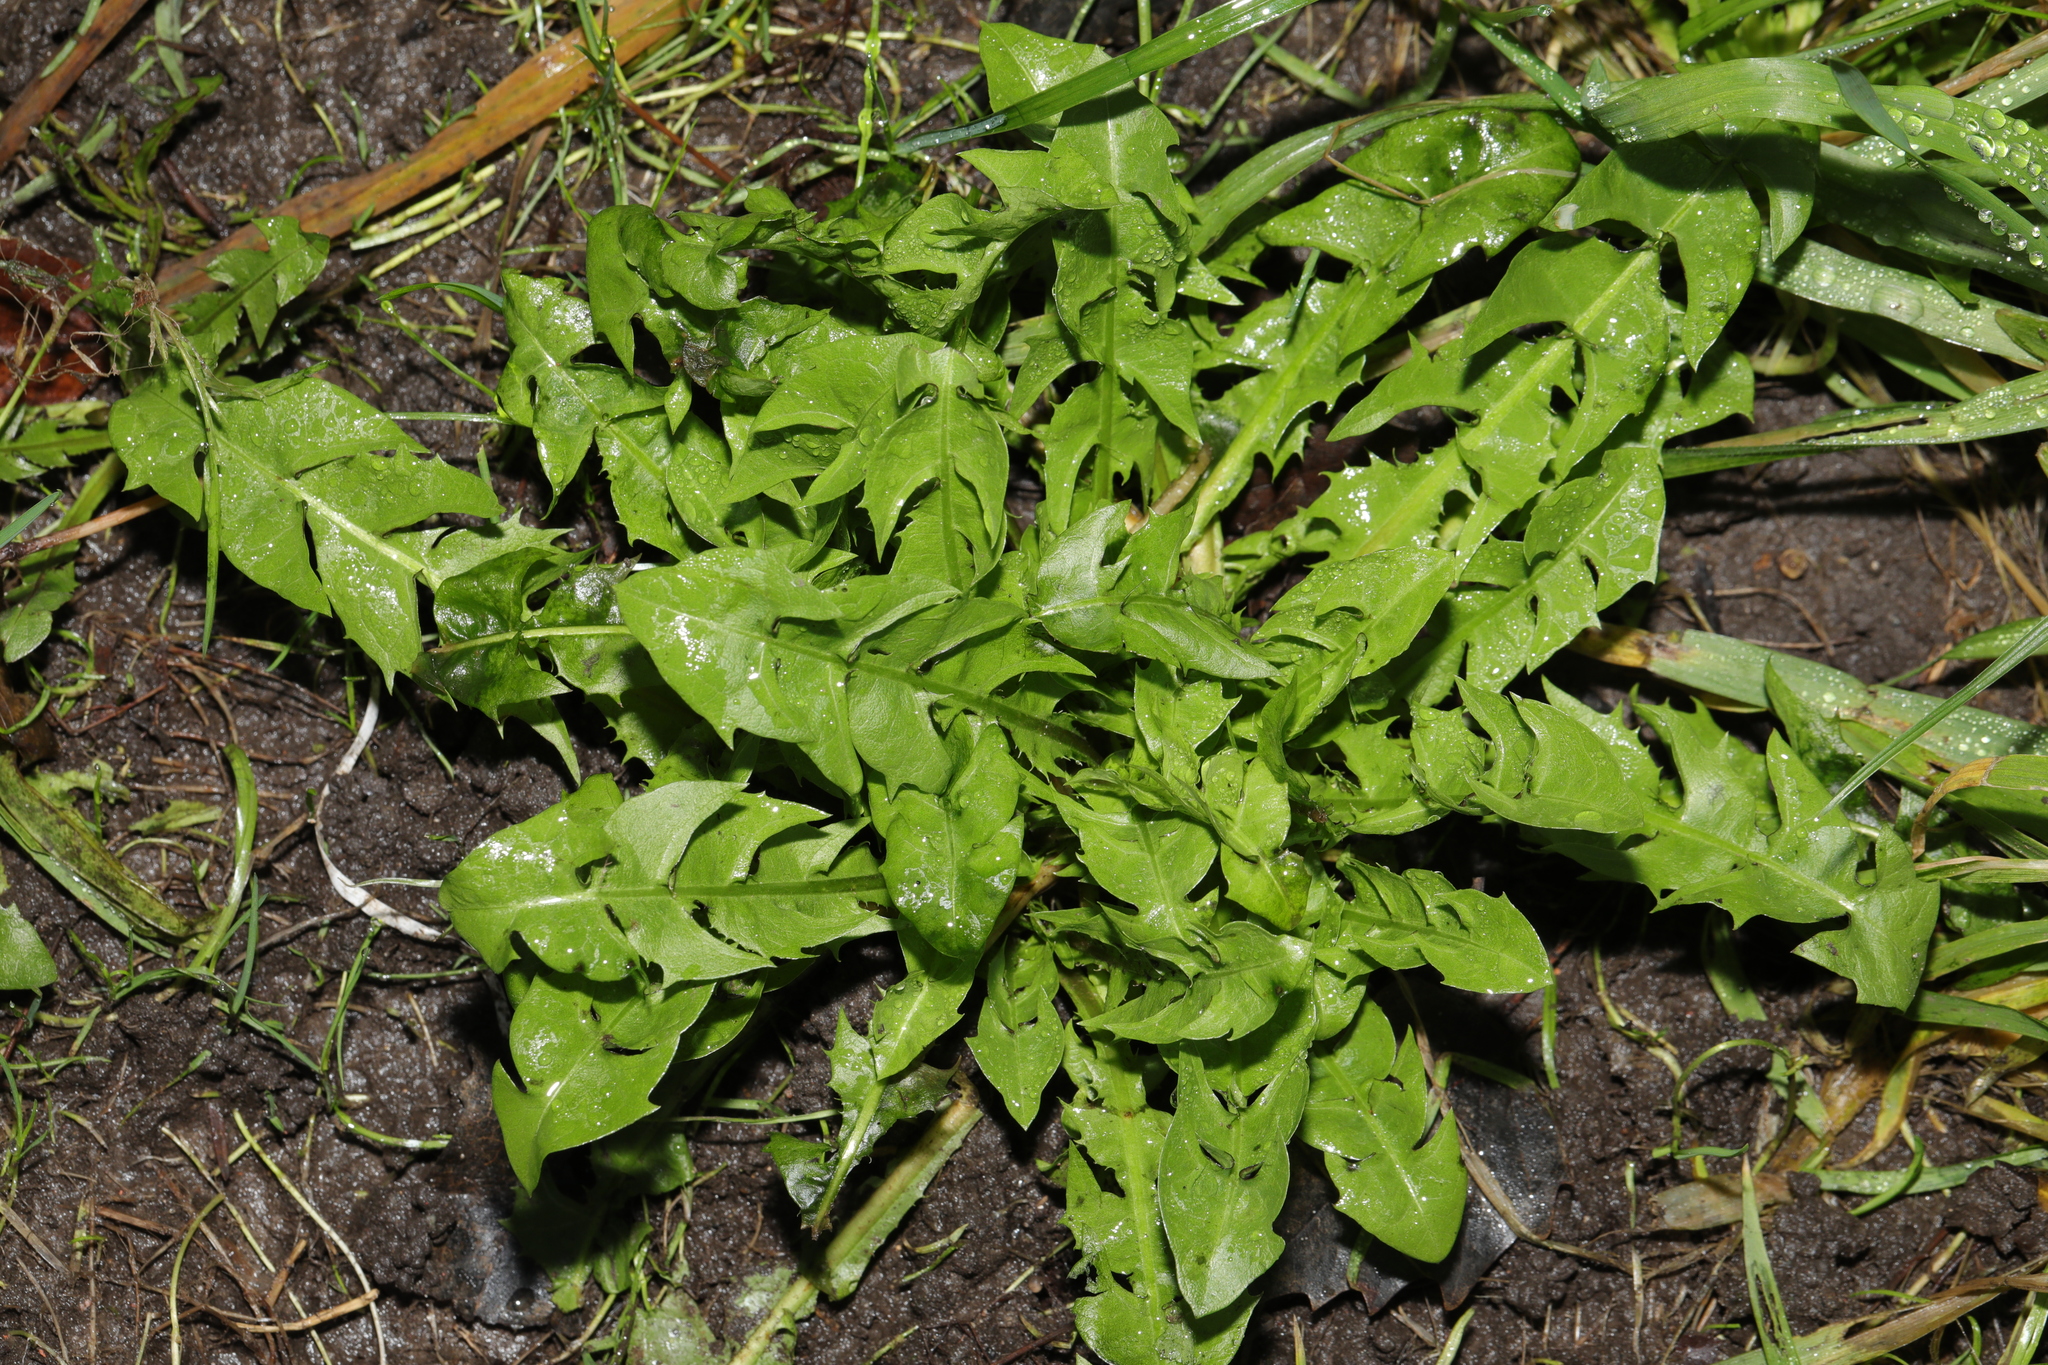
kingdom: Plantae
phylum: Tracheophyta
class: Magnoliopsida
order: Asterales
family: Asteraceae
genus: Taraxacum
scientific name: Taraxacum officinale
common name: Common dandelion
